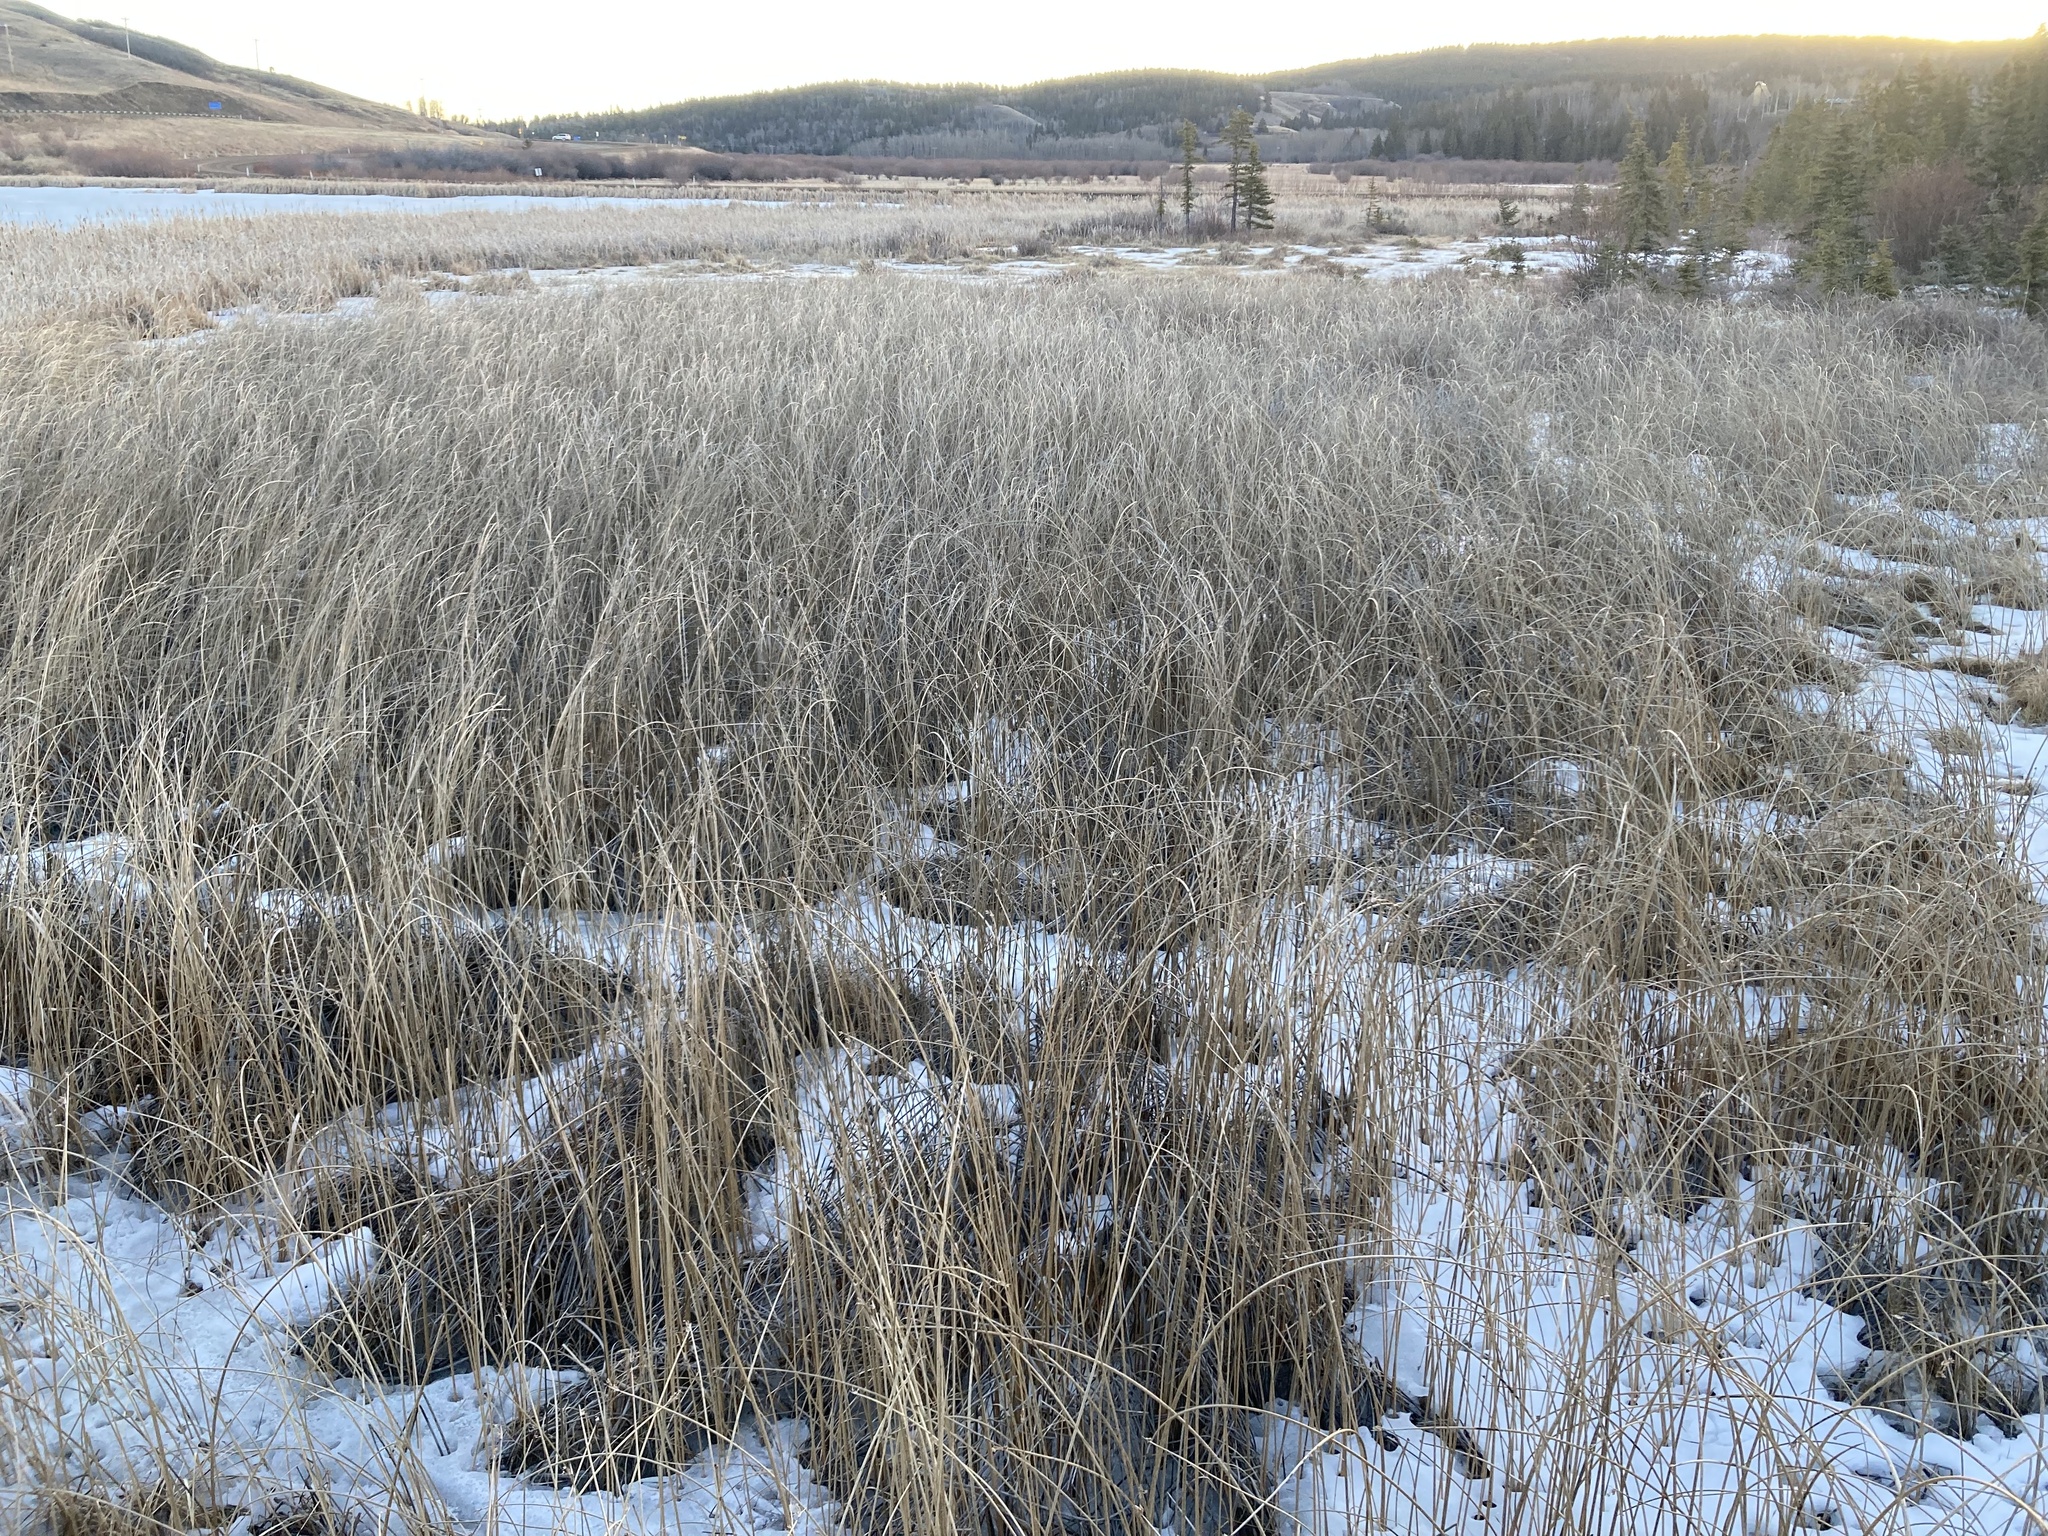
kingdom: Plantae
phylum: Tracheophyta
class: Liliopsida
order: Poales
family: Cyperaceae
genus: Schoenoplectus
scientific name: Schoenoplectus acutus
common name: Hardstem bulrush
